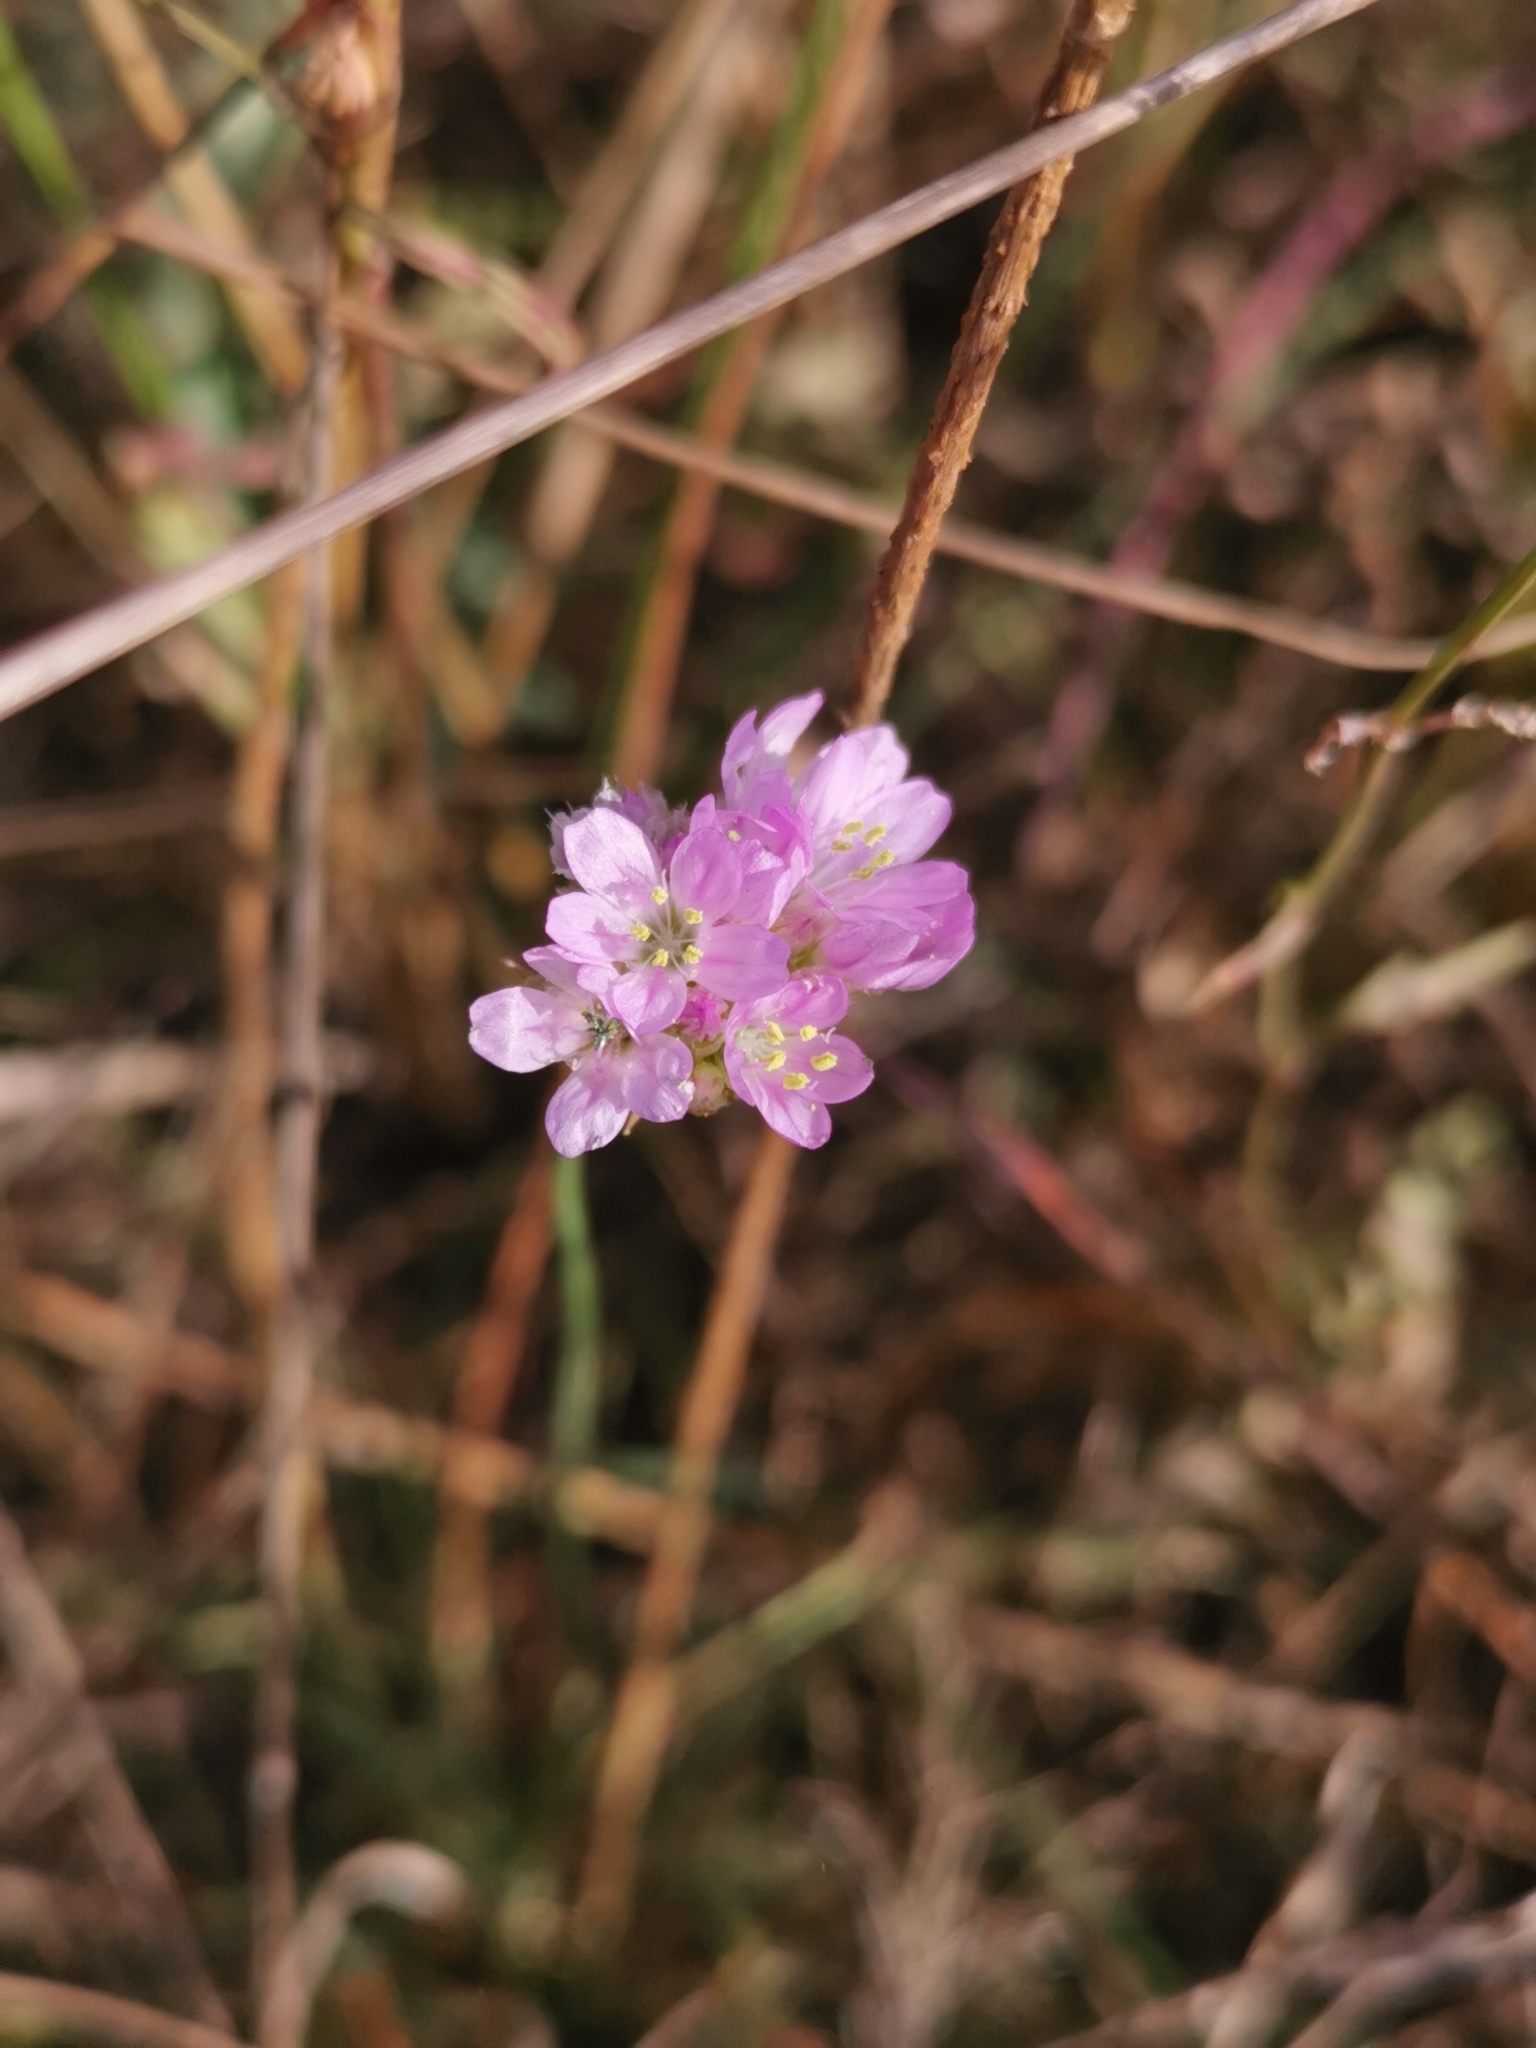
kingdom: Plantae
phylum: Tracheophyta
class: Magnoliopsida
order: Caryophyllales
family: Plumbaginaceae
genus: Armeria
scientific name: Armeria maritima
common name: Thrift
